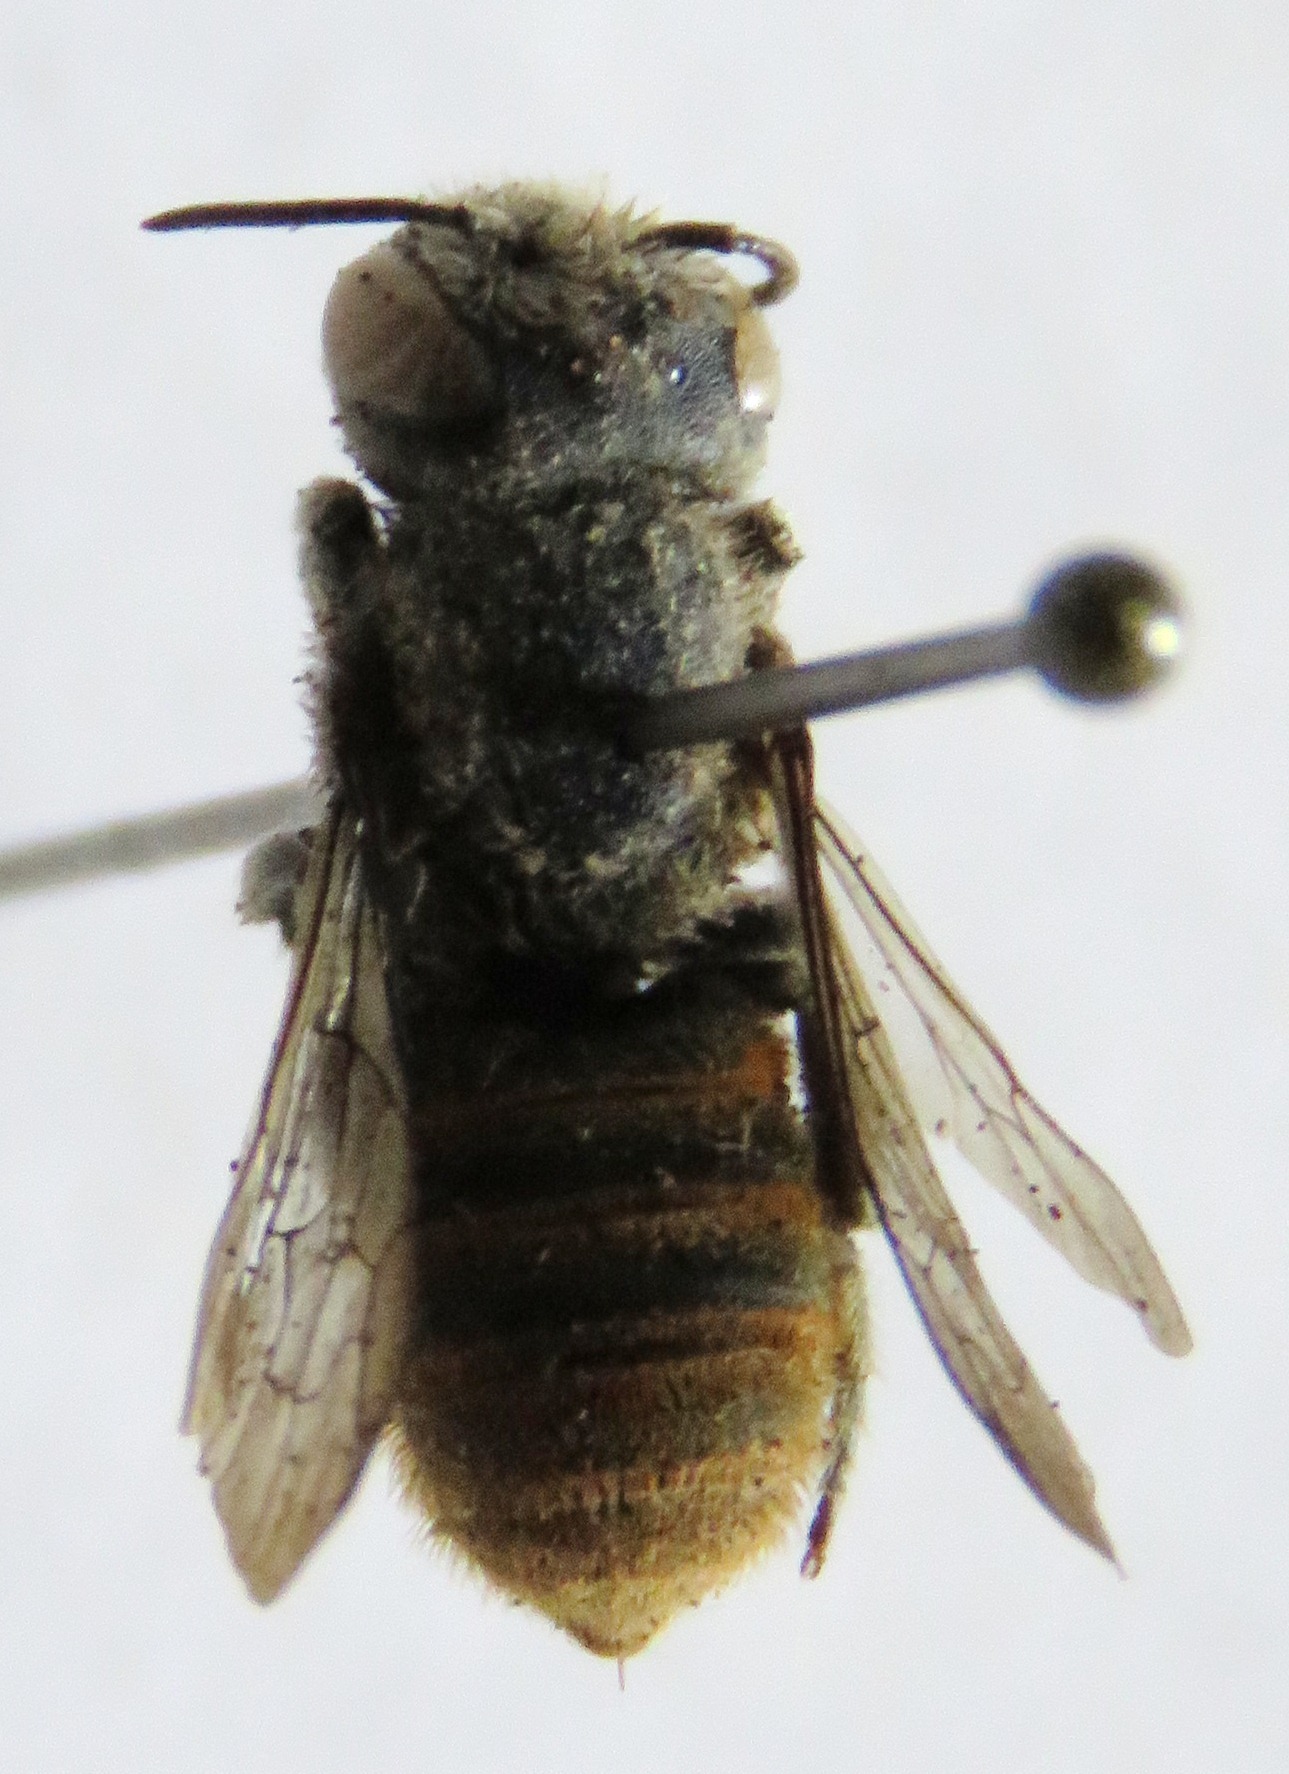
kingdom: Animalia
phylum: Arthropoda
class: Insecta
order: Hymenoptera
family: Megachilidae
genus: Megachile
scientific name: Megachile otomita
